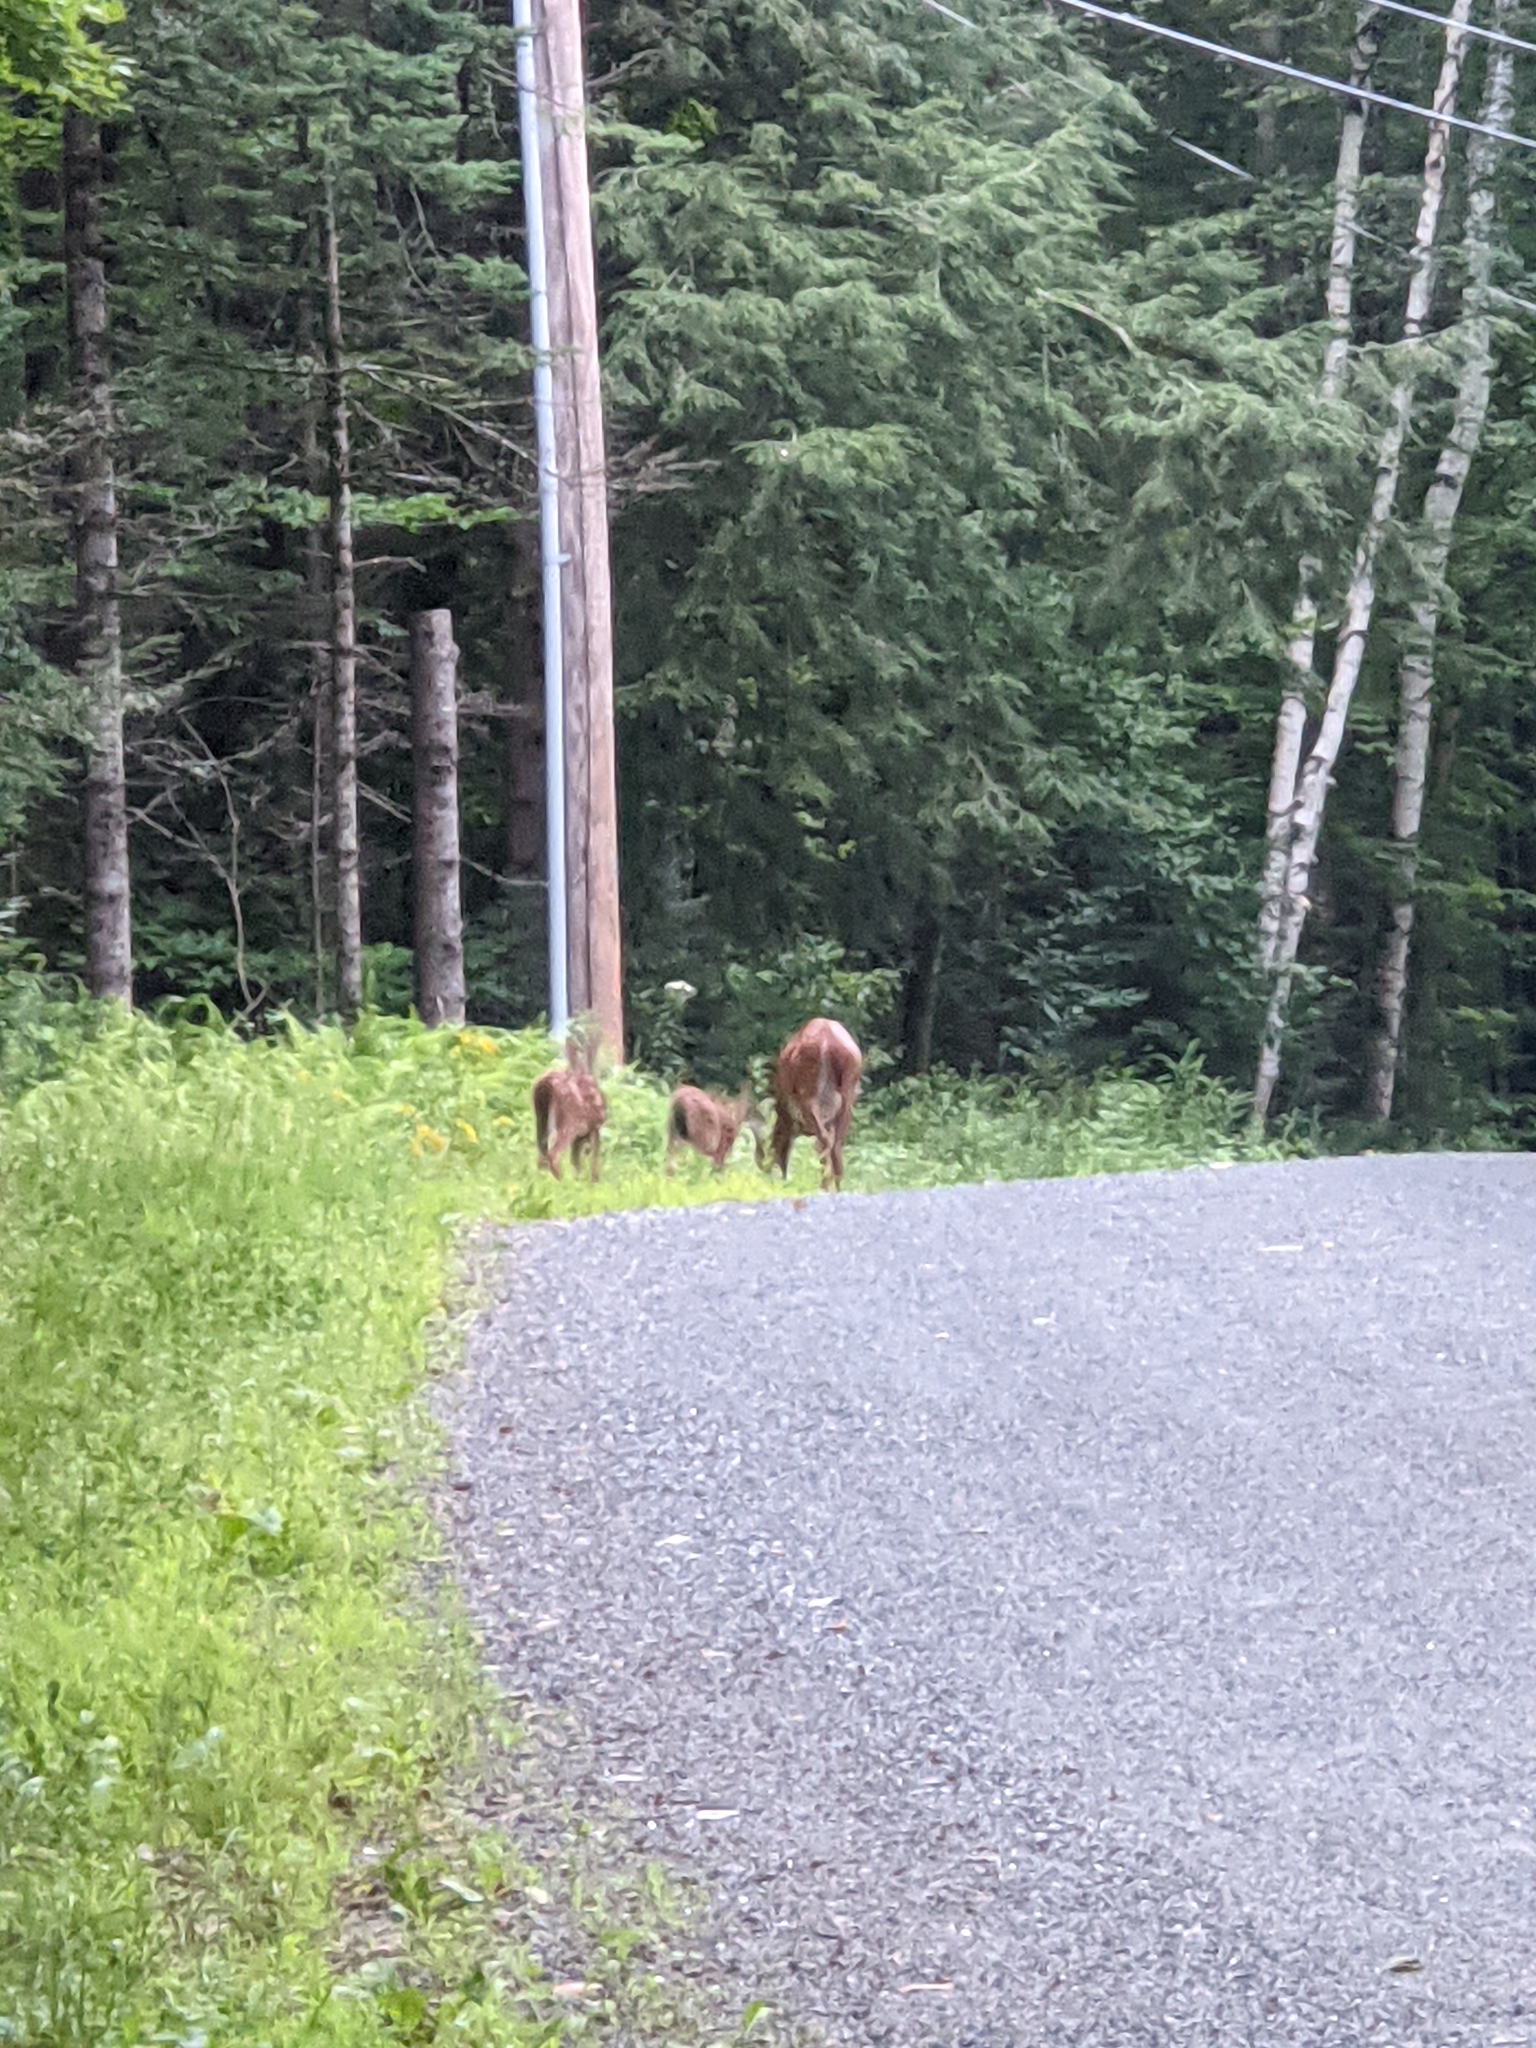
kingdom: Animalia
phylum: Chordata
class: Mammalia
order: Artiodactyla
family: Cervidae
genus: Odocoileus
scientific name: Odocoileus virginianus
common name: White-tailed deer
